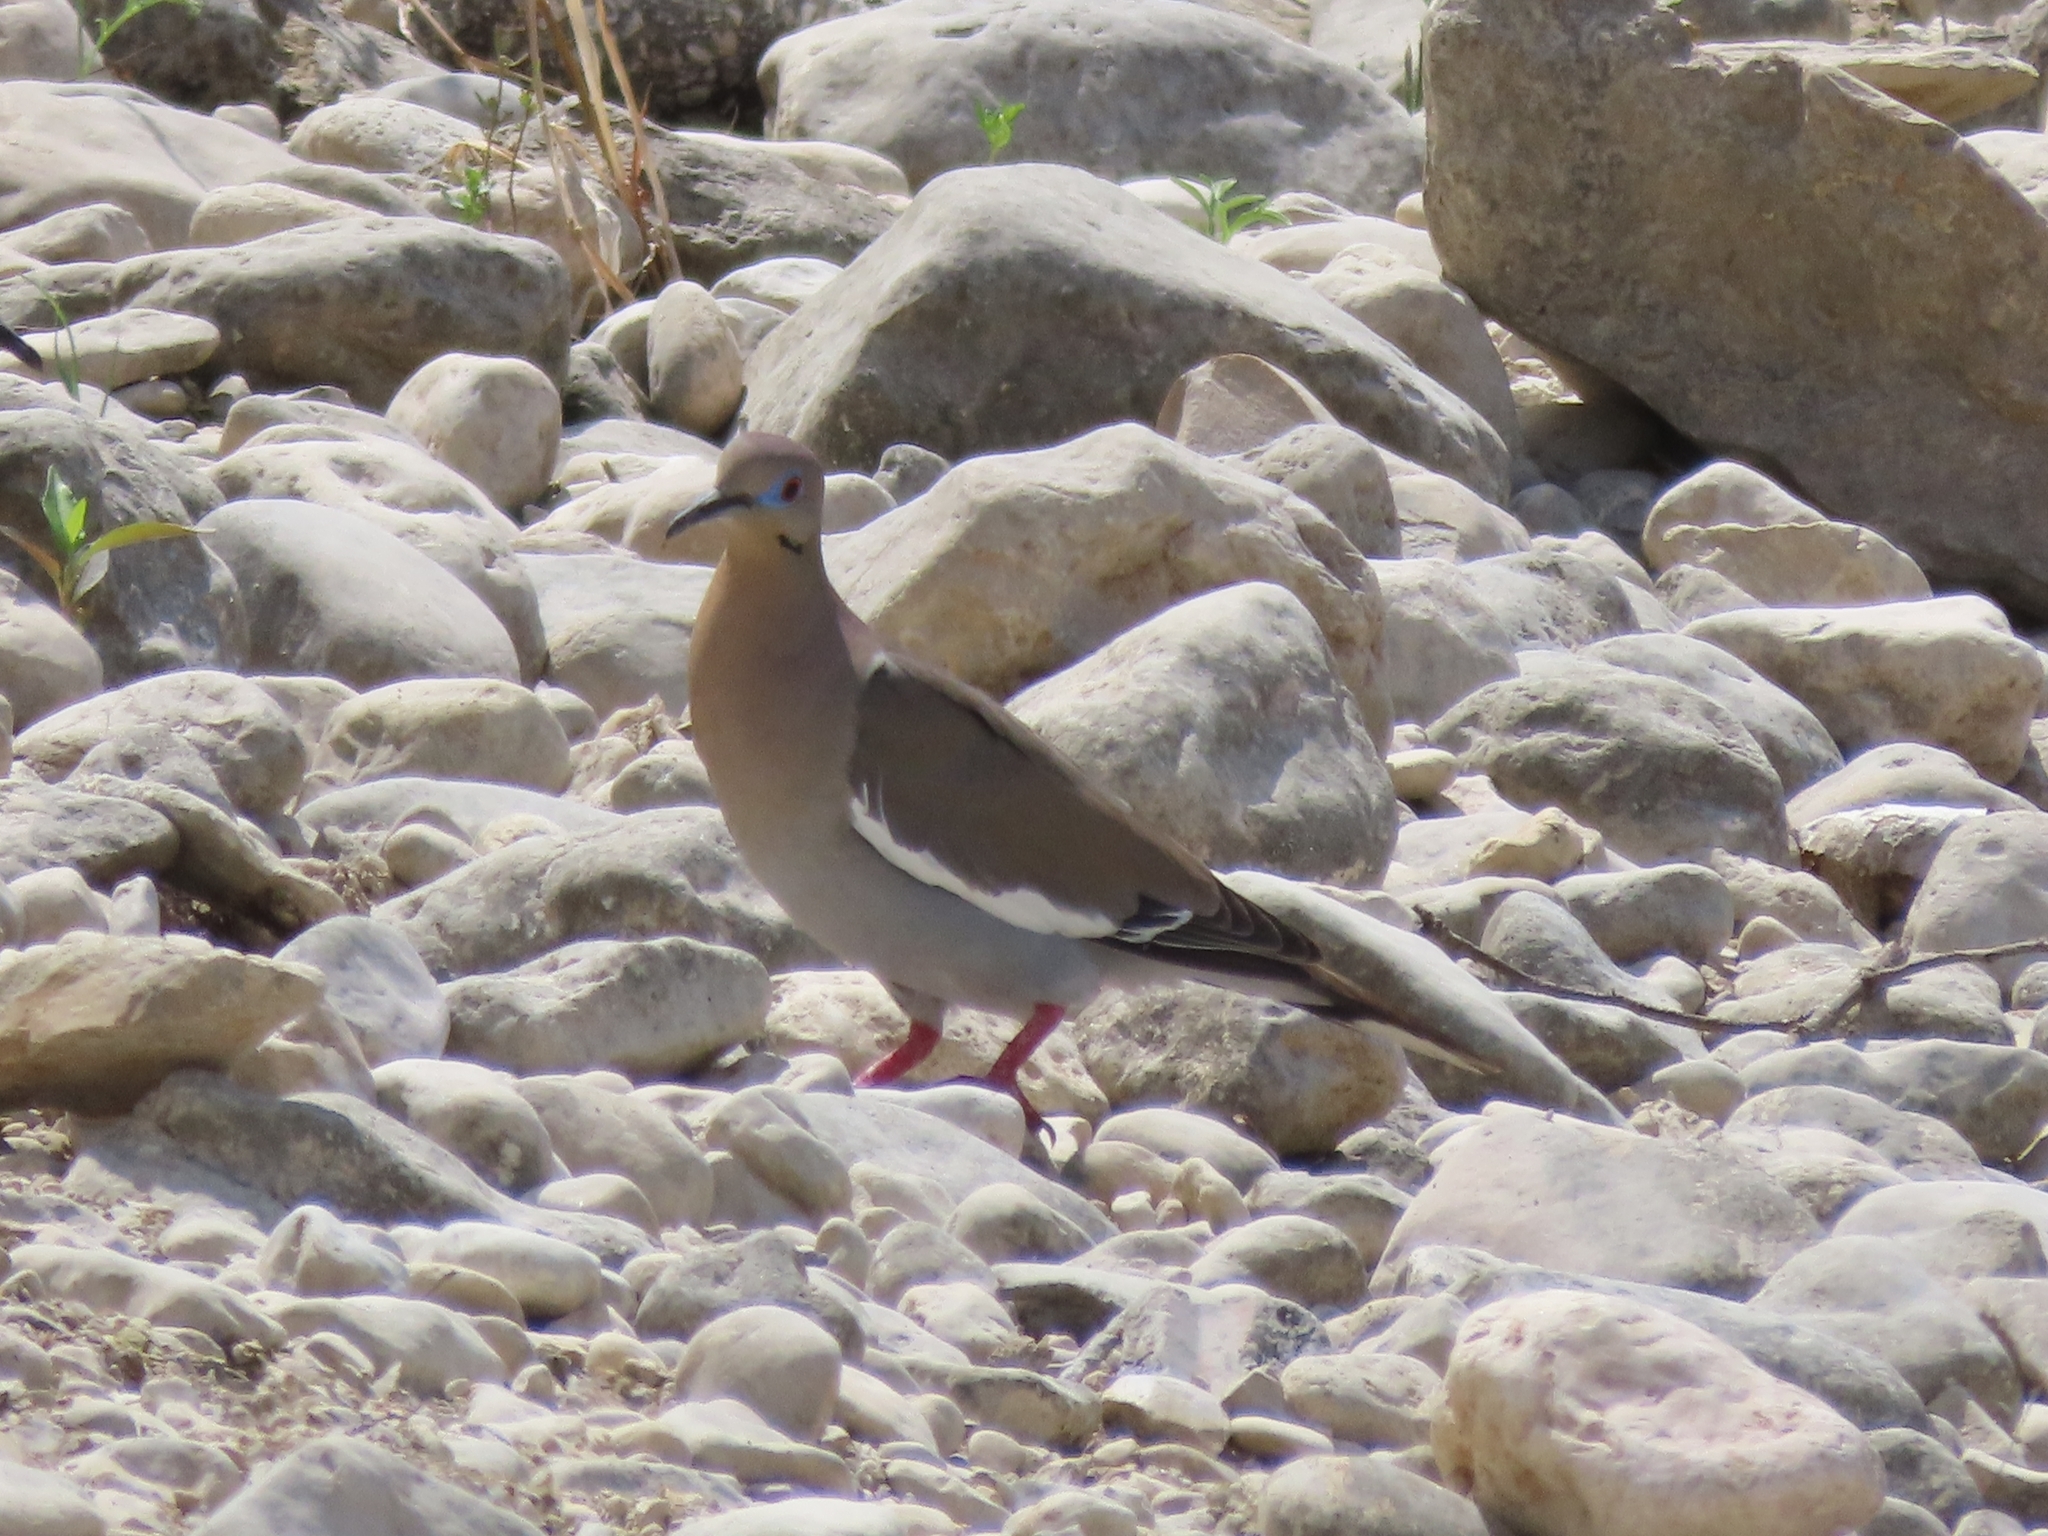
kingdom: Animalia
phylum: Chordata
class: Aves
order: Columbiformes
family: Columbidae
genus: Zenaida
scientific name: Zenaida asiatica
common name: White-winged dove
